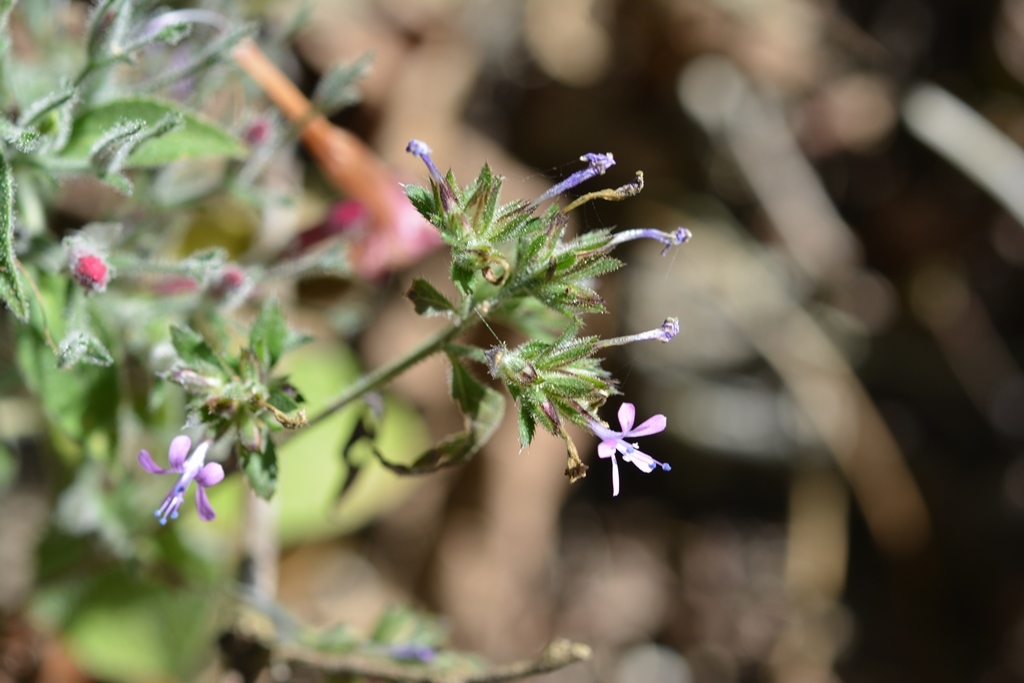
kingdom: Plantae
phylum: Tracheophyta
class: Magnoliopsida
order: Ericales
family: Polemoniaceae
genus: Loeselia
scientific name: Loeselia glandulosa
